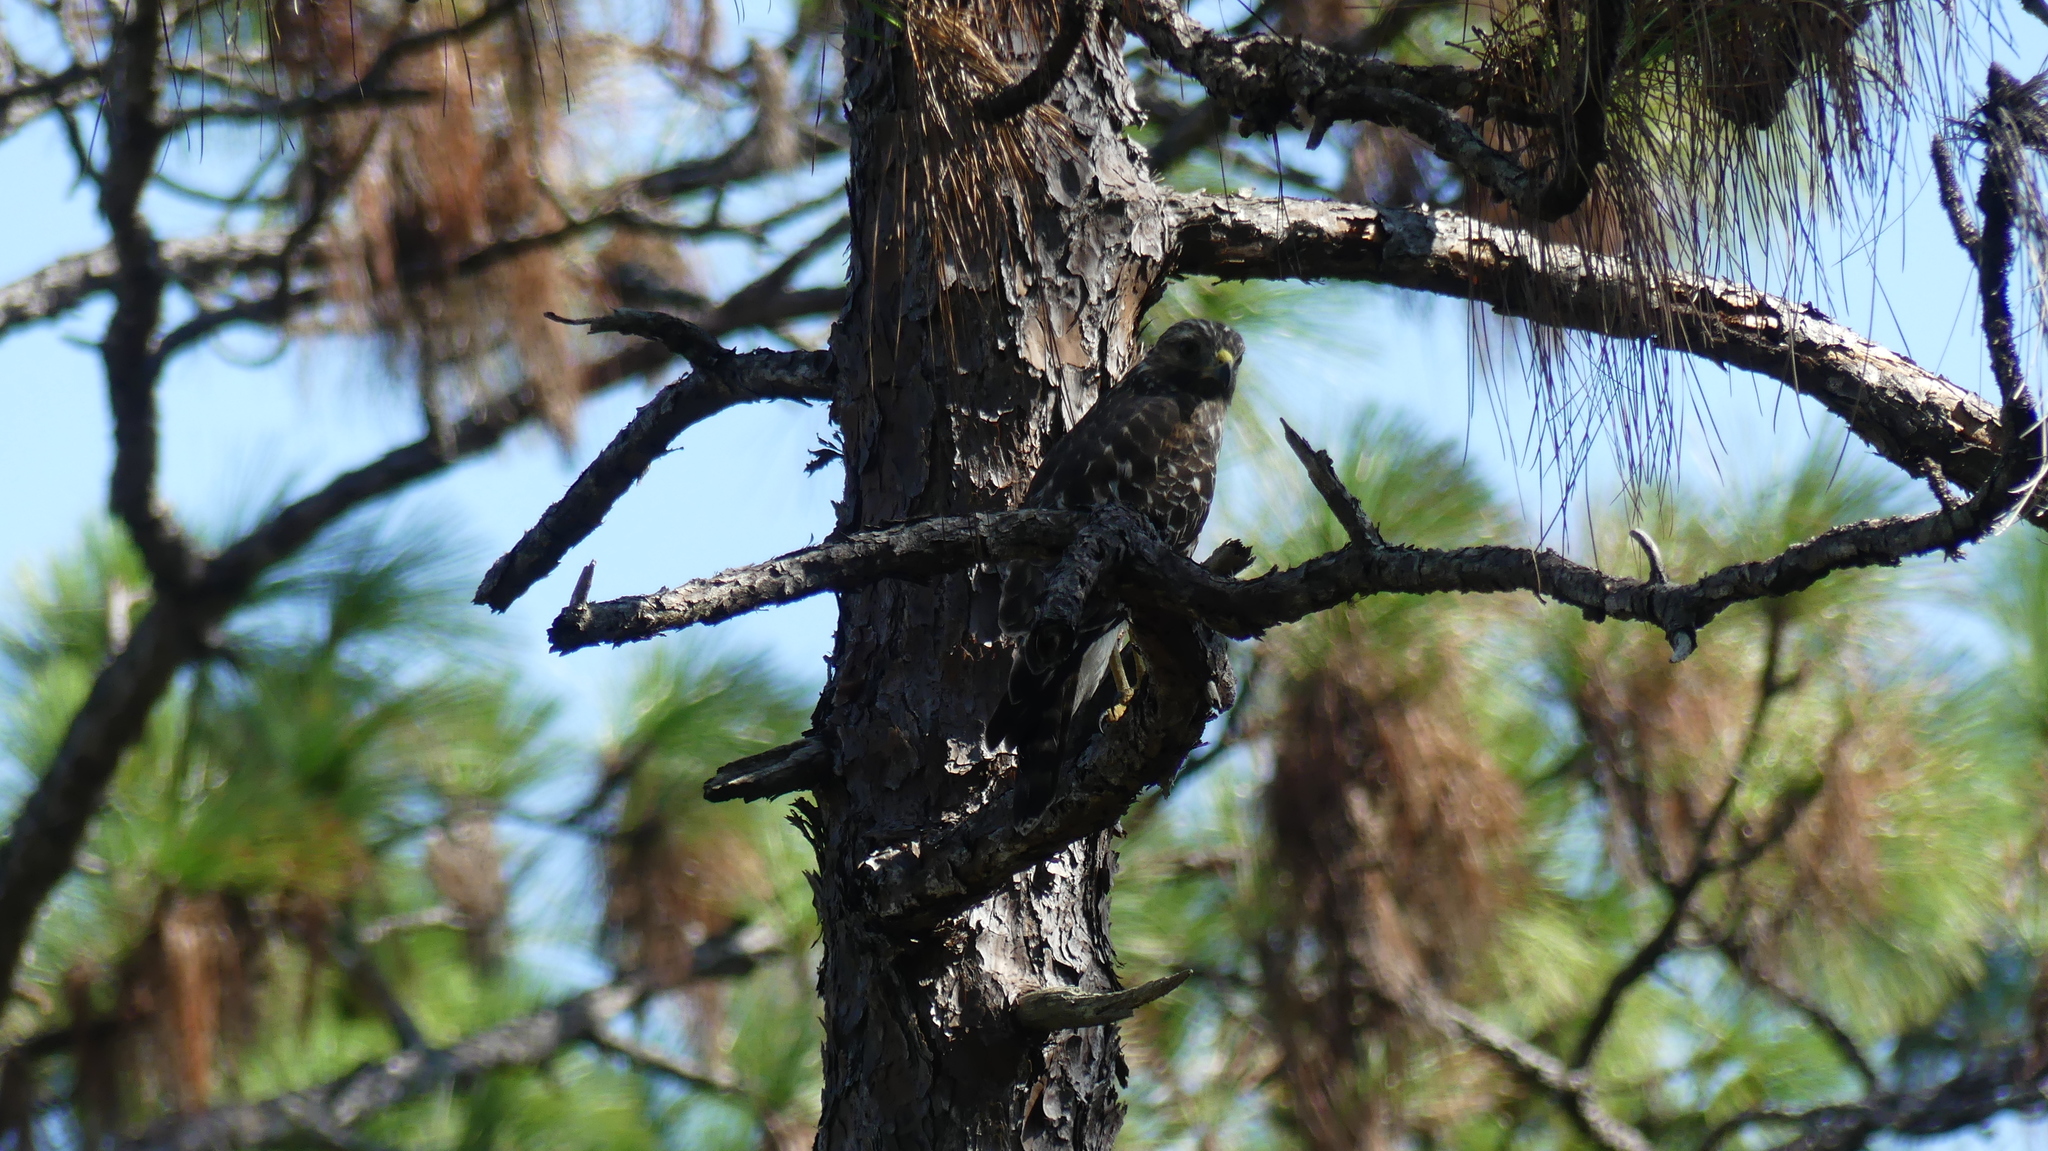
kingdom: Animalia
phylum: Chordata
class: Aves
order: Accipitriformes
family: Accipitridae
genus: Buteo
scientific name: Buteo lineatus
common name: Red-shouldered hawk
